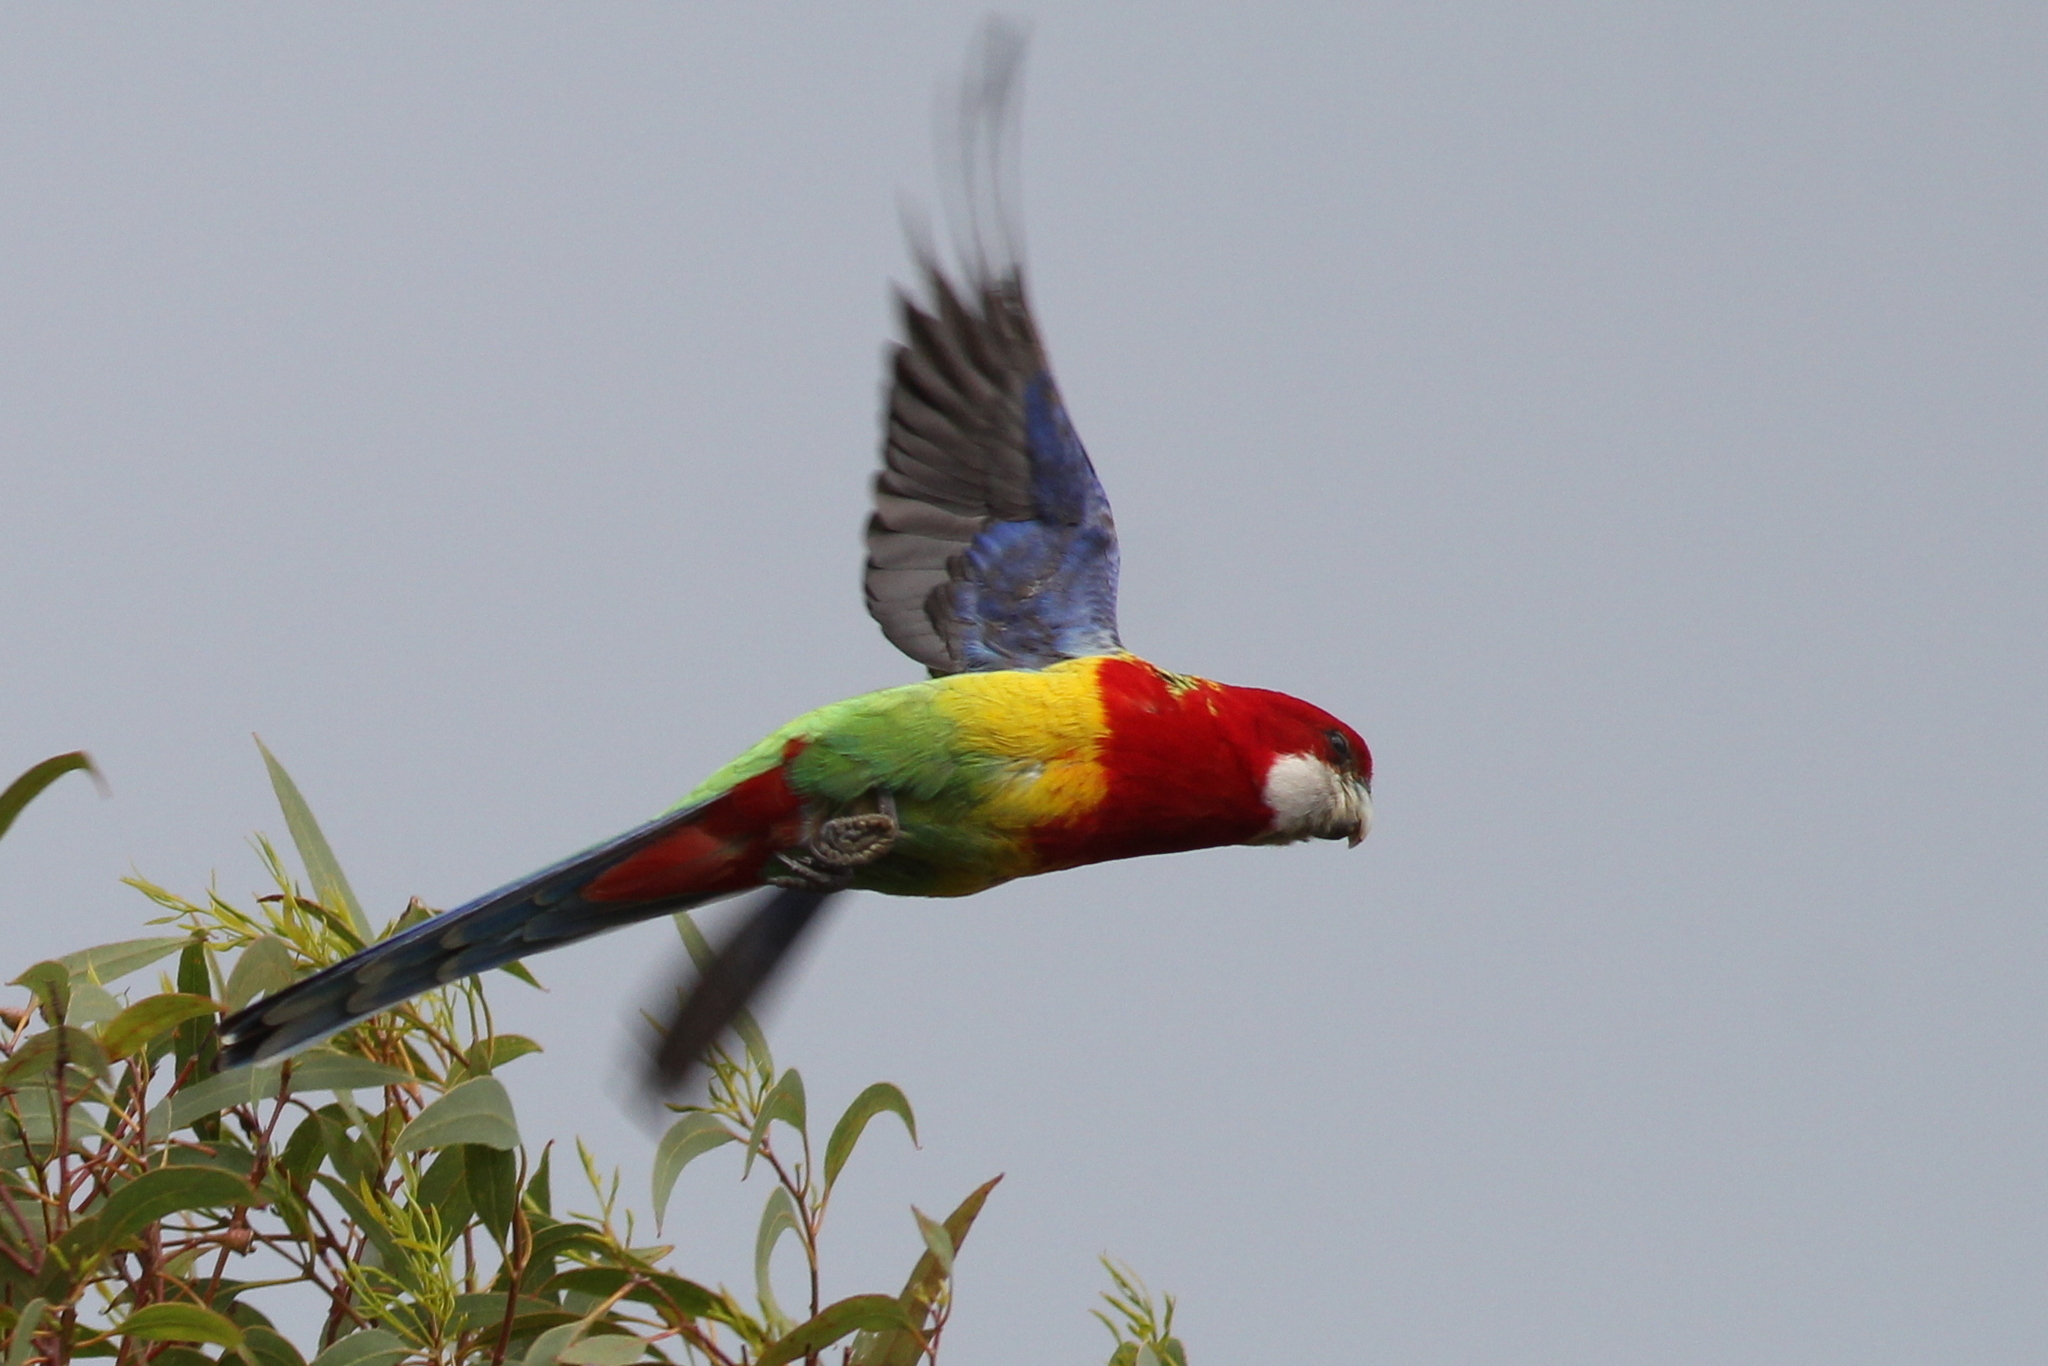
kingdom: Animalia
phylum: Chordata
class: Aves
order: Psittaciformes
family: Psittacidae
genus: Platycercus
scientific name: Platycercus eximius
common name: Eastern rosella
